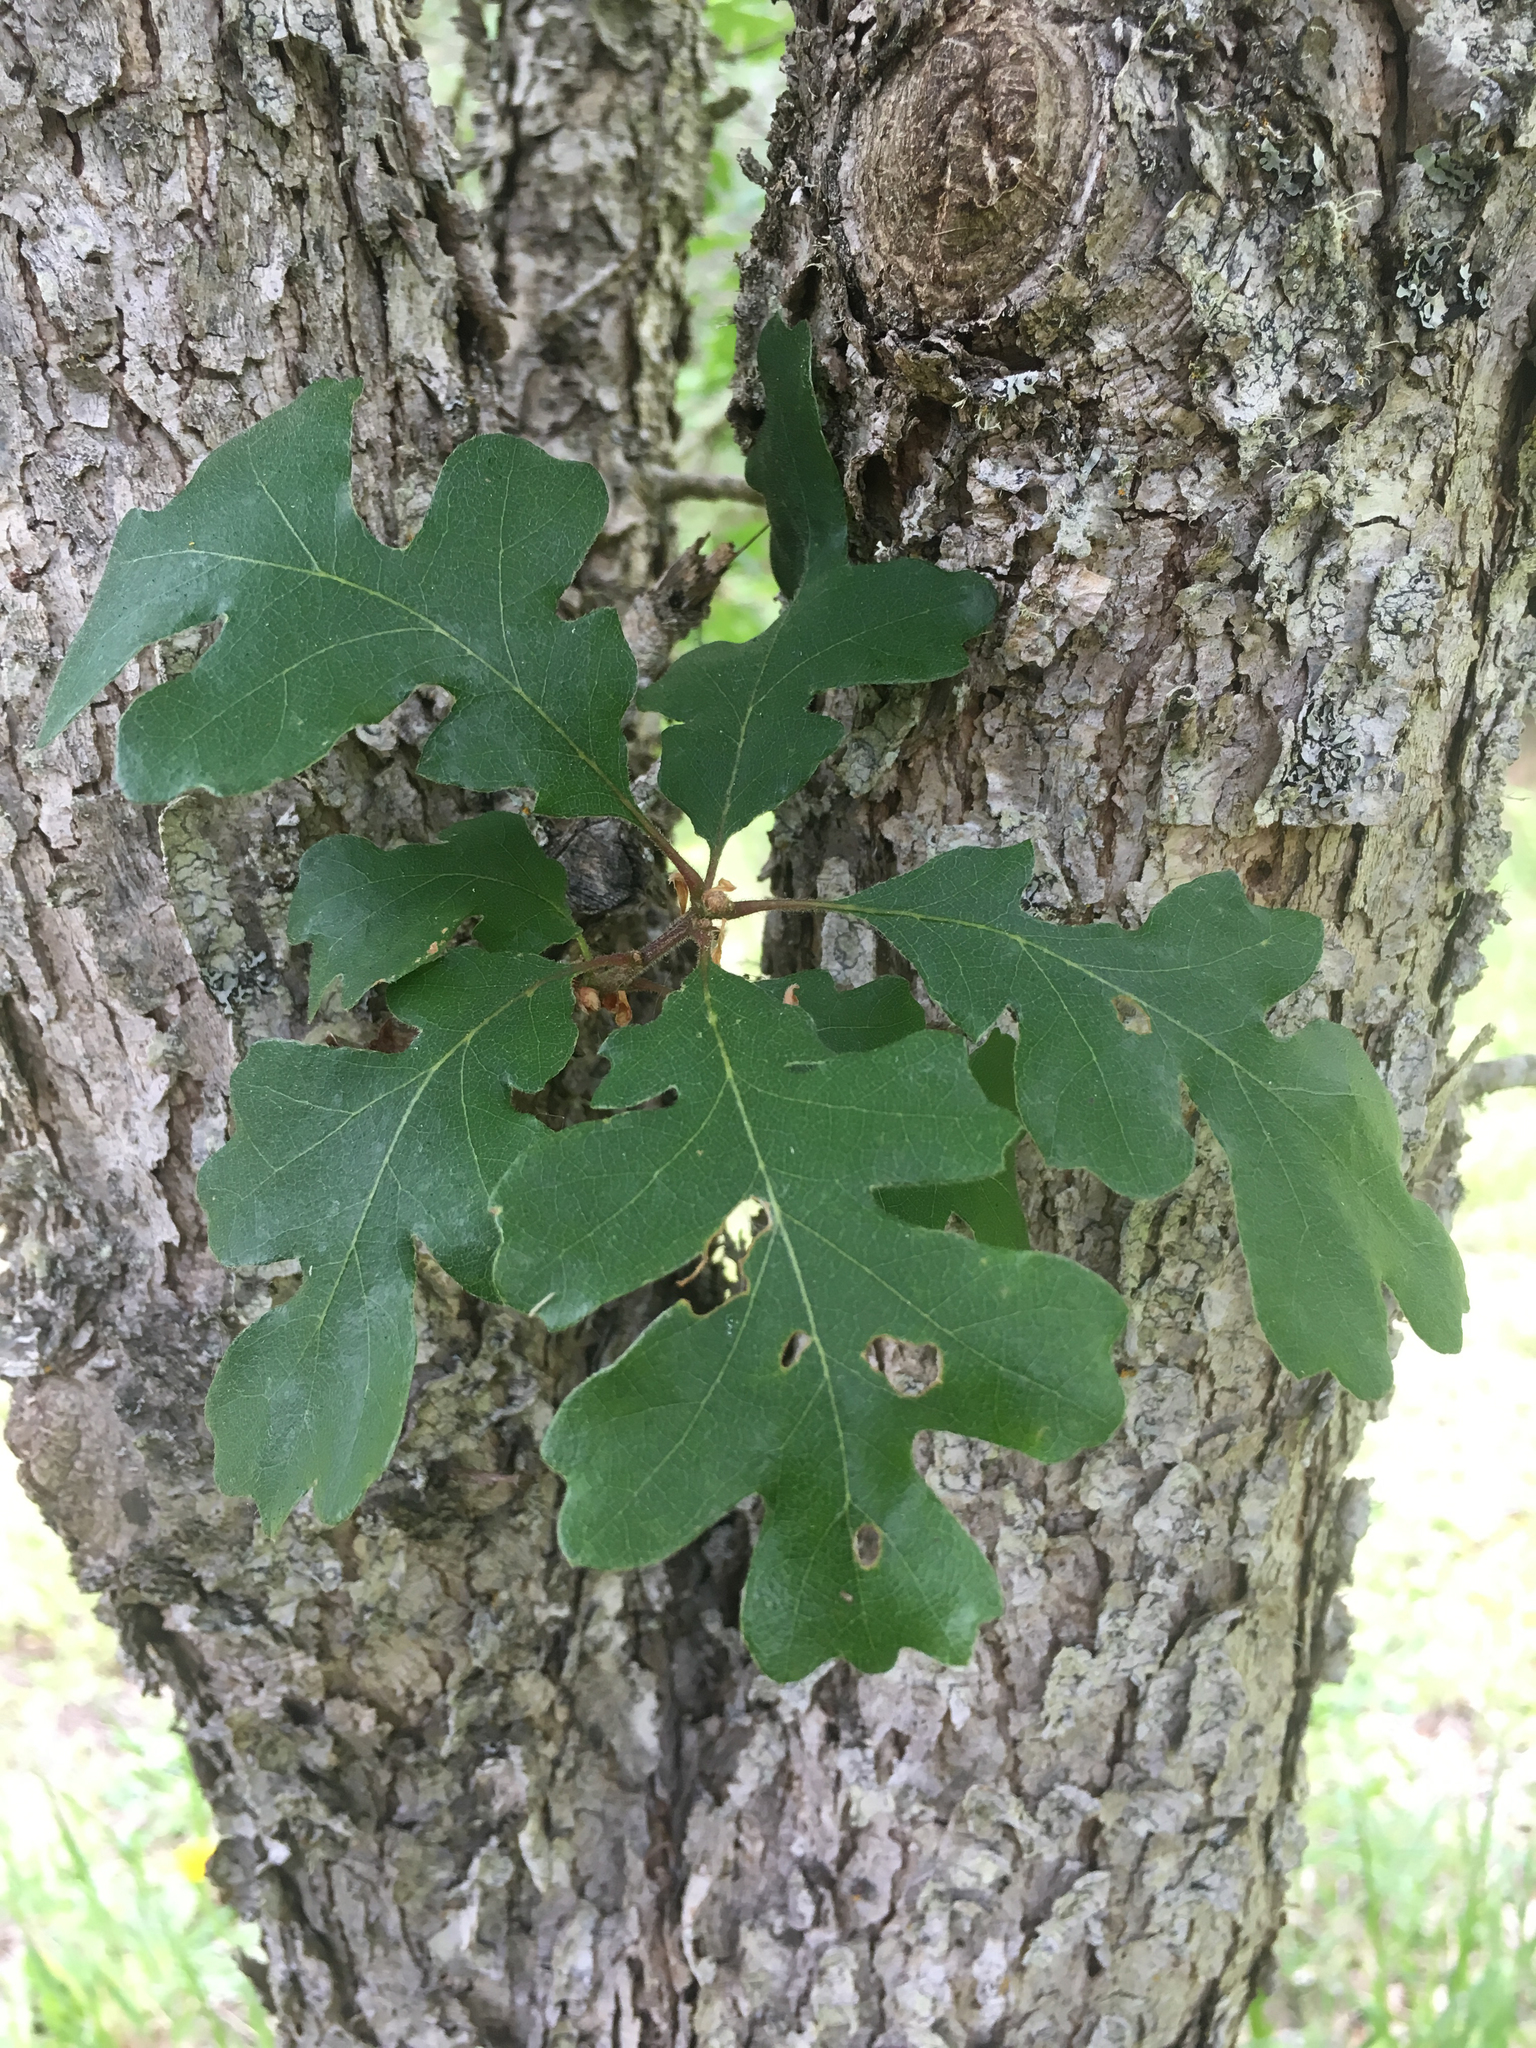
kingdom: Plantae
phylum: Tracheophyta
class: Magnoliopsida
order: Fagales
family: Fagaceae
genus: Quercus
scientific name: Quercus garryana
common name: Garry oak
